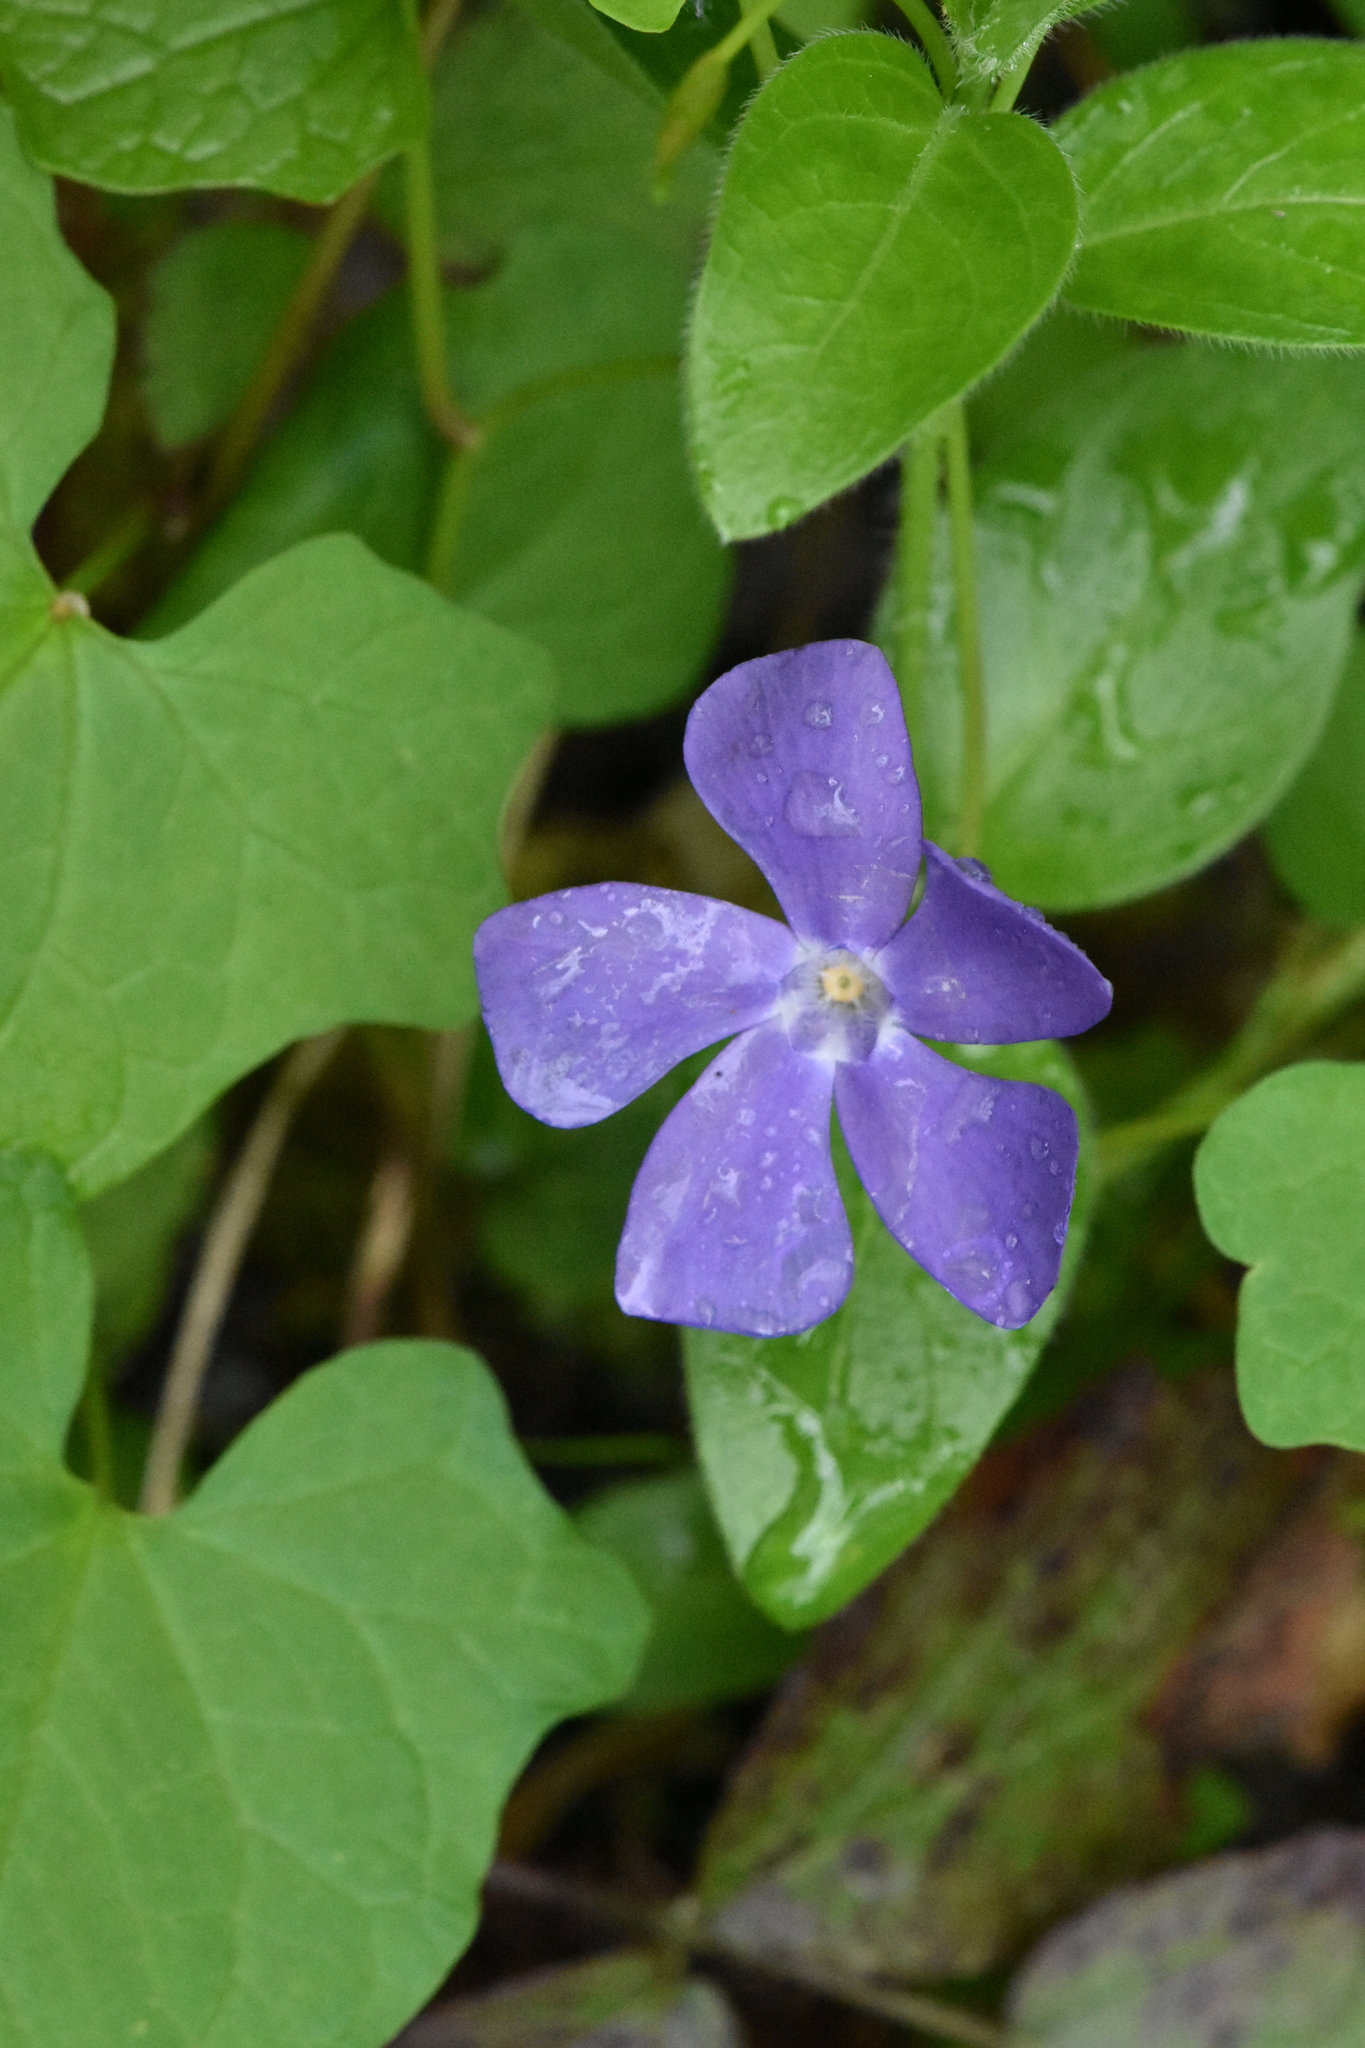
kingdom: Plantae
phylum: Tracheophyta
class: Magnoliopsida
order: Gentianales
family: Apocynaceae
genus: Vinca
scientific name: Vinca major
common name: Greater periwinkle
